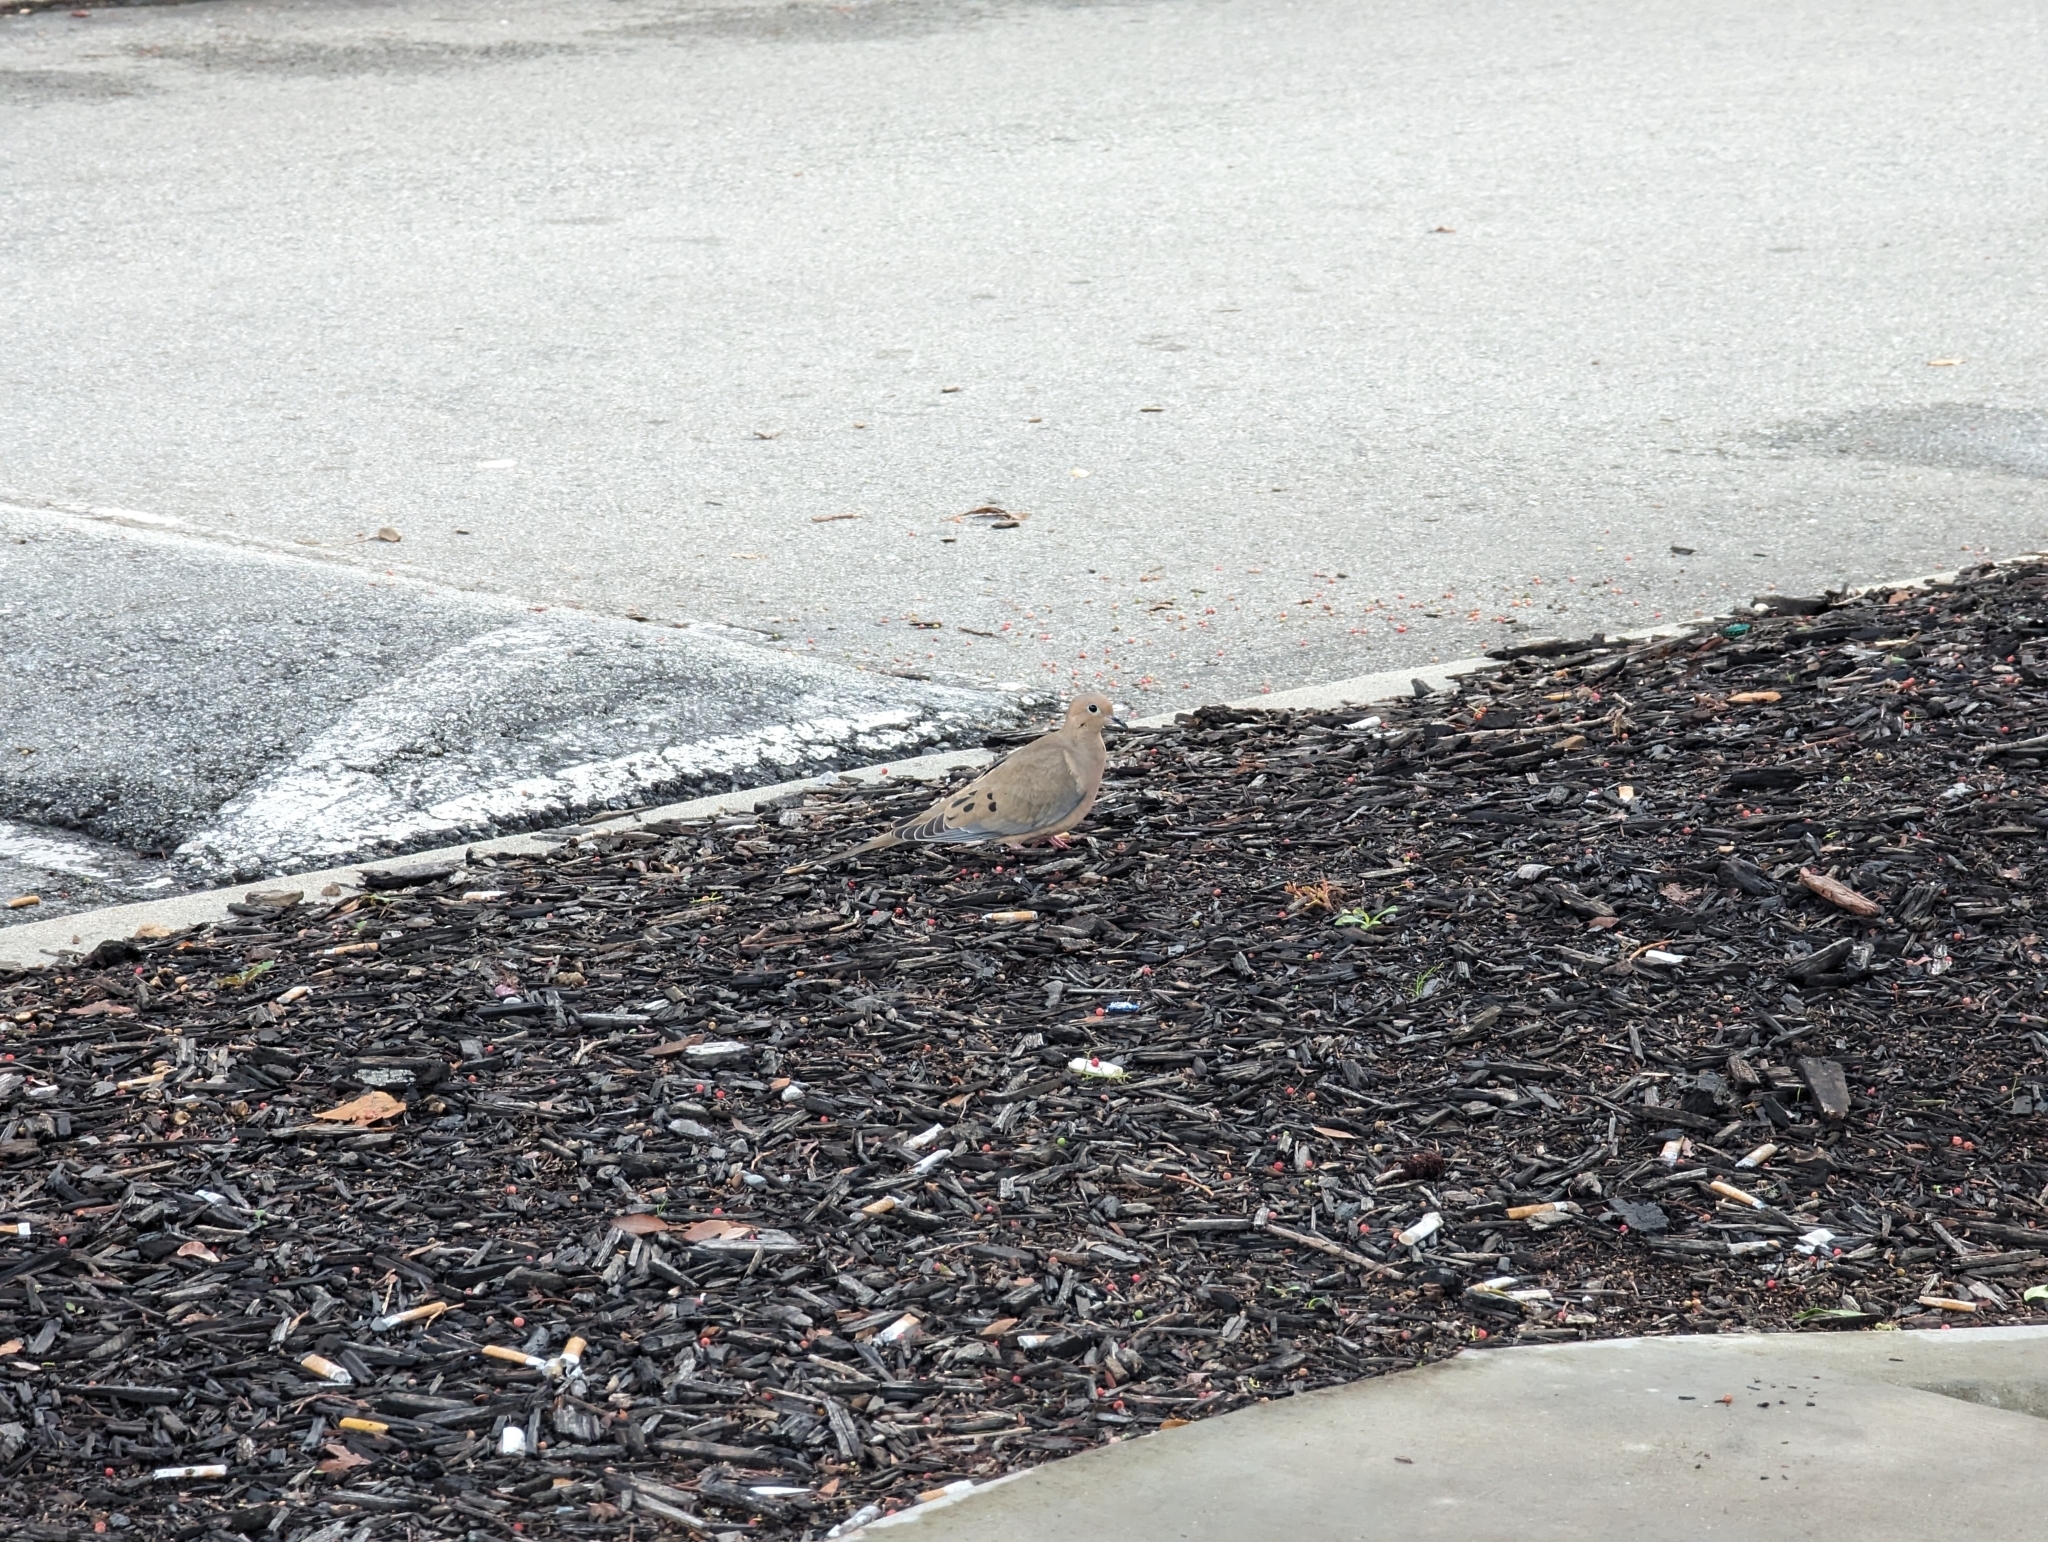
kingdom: Animalia
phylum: Chordata
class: Aves
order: Columbiformes
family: Columbidae
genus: Zenaida
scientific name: Zenaida macroura
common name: Mourning dove
